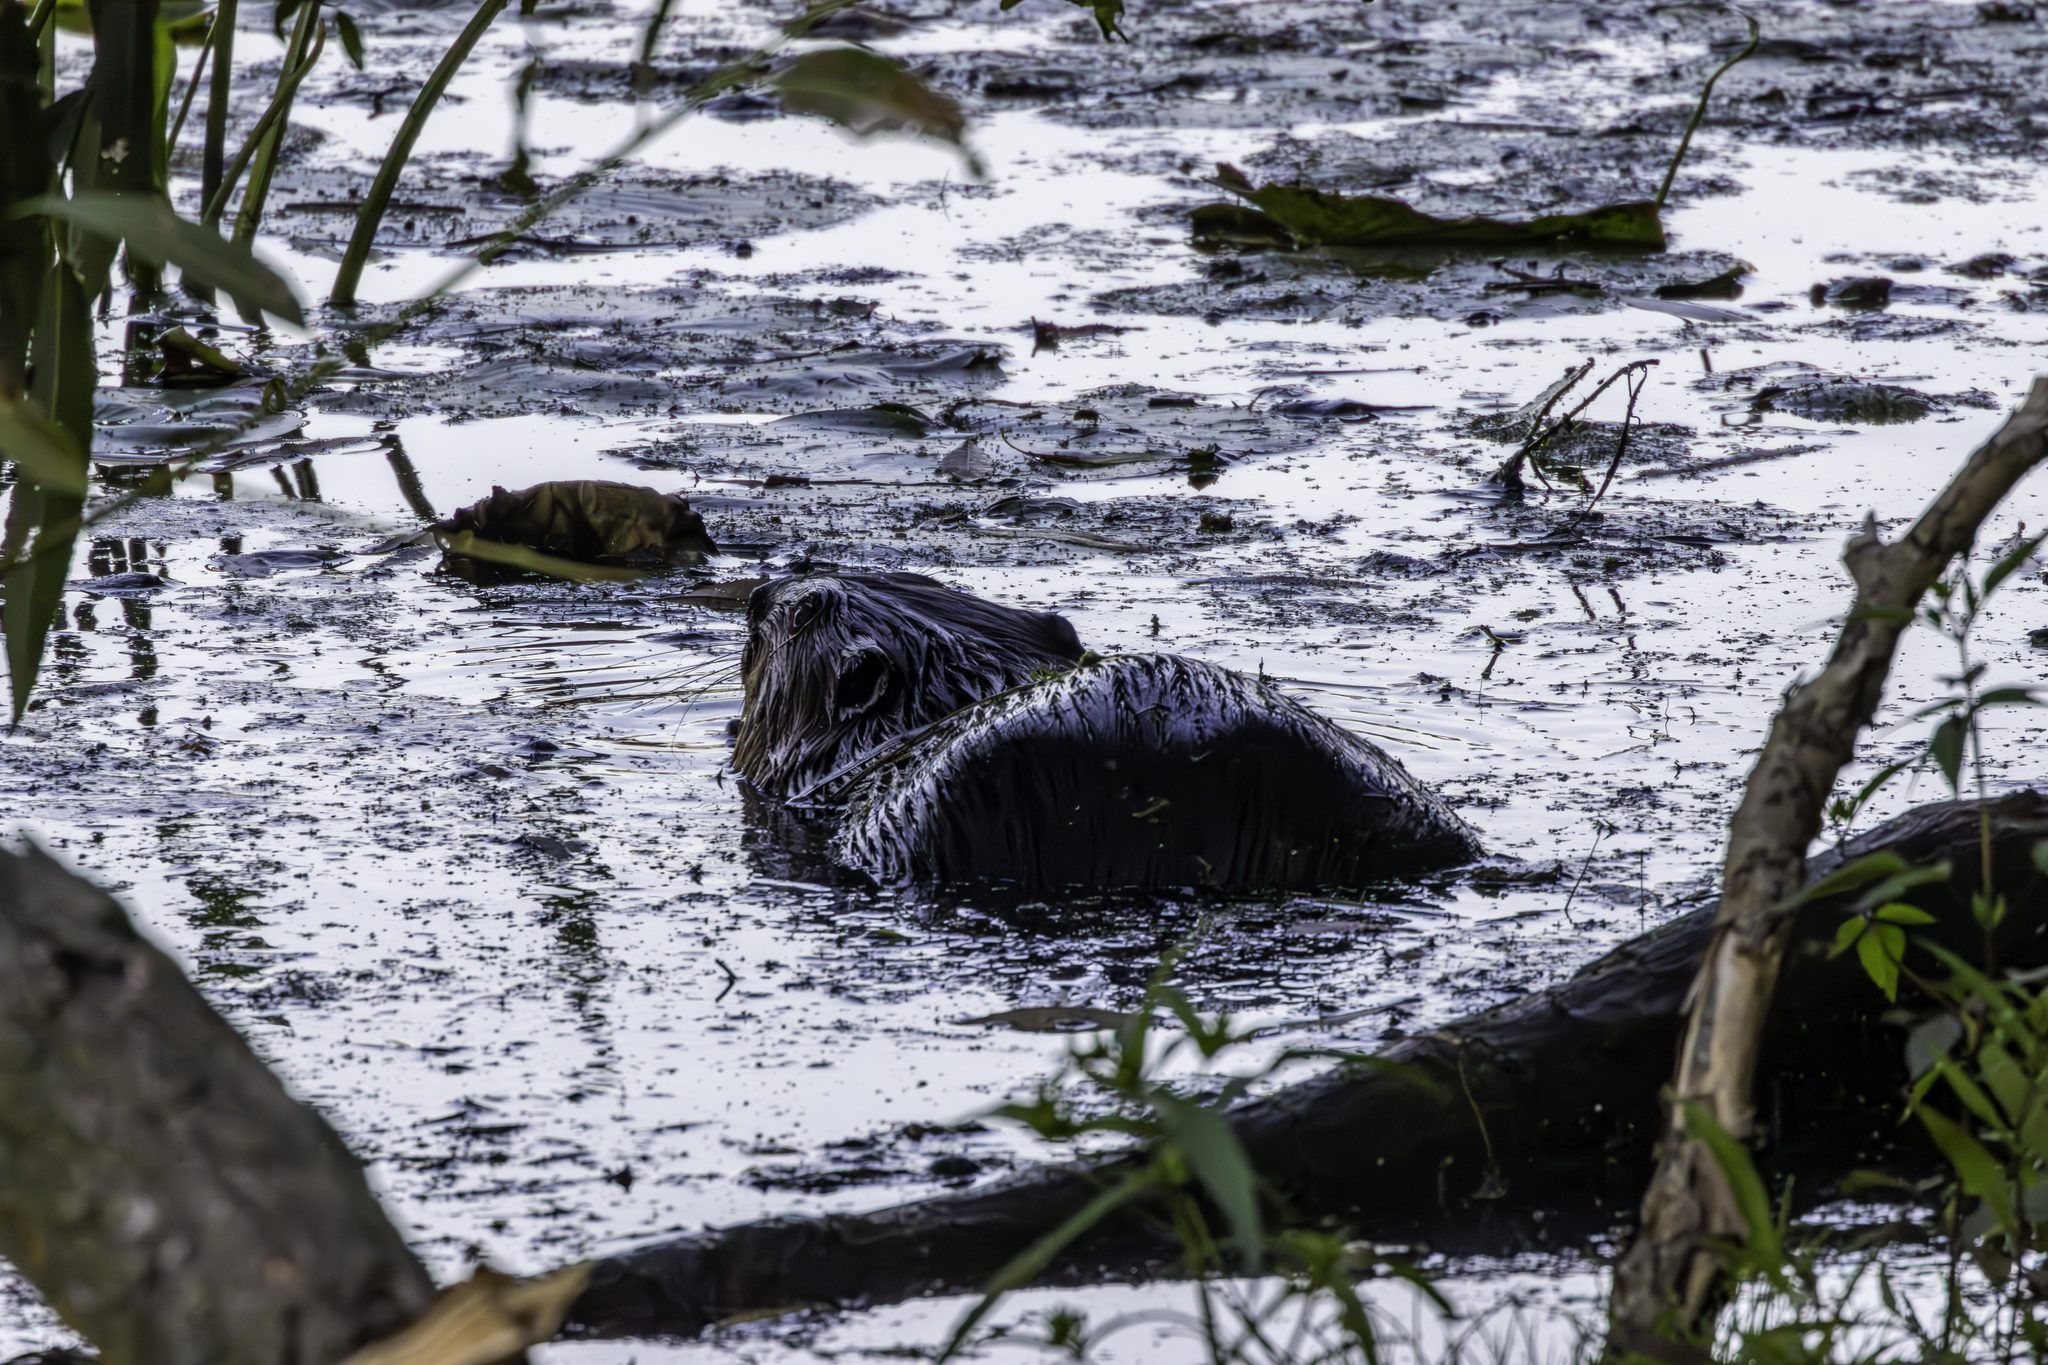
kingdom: Animalia
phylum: Chordata
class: Mammalia
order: Rodentia
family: Castoridae
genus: Castor
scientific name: Castor canadensis
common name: American beaver
